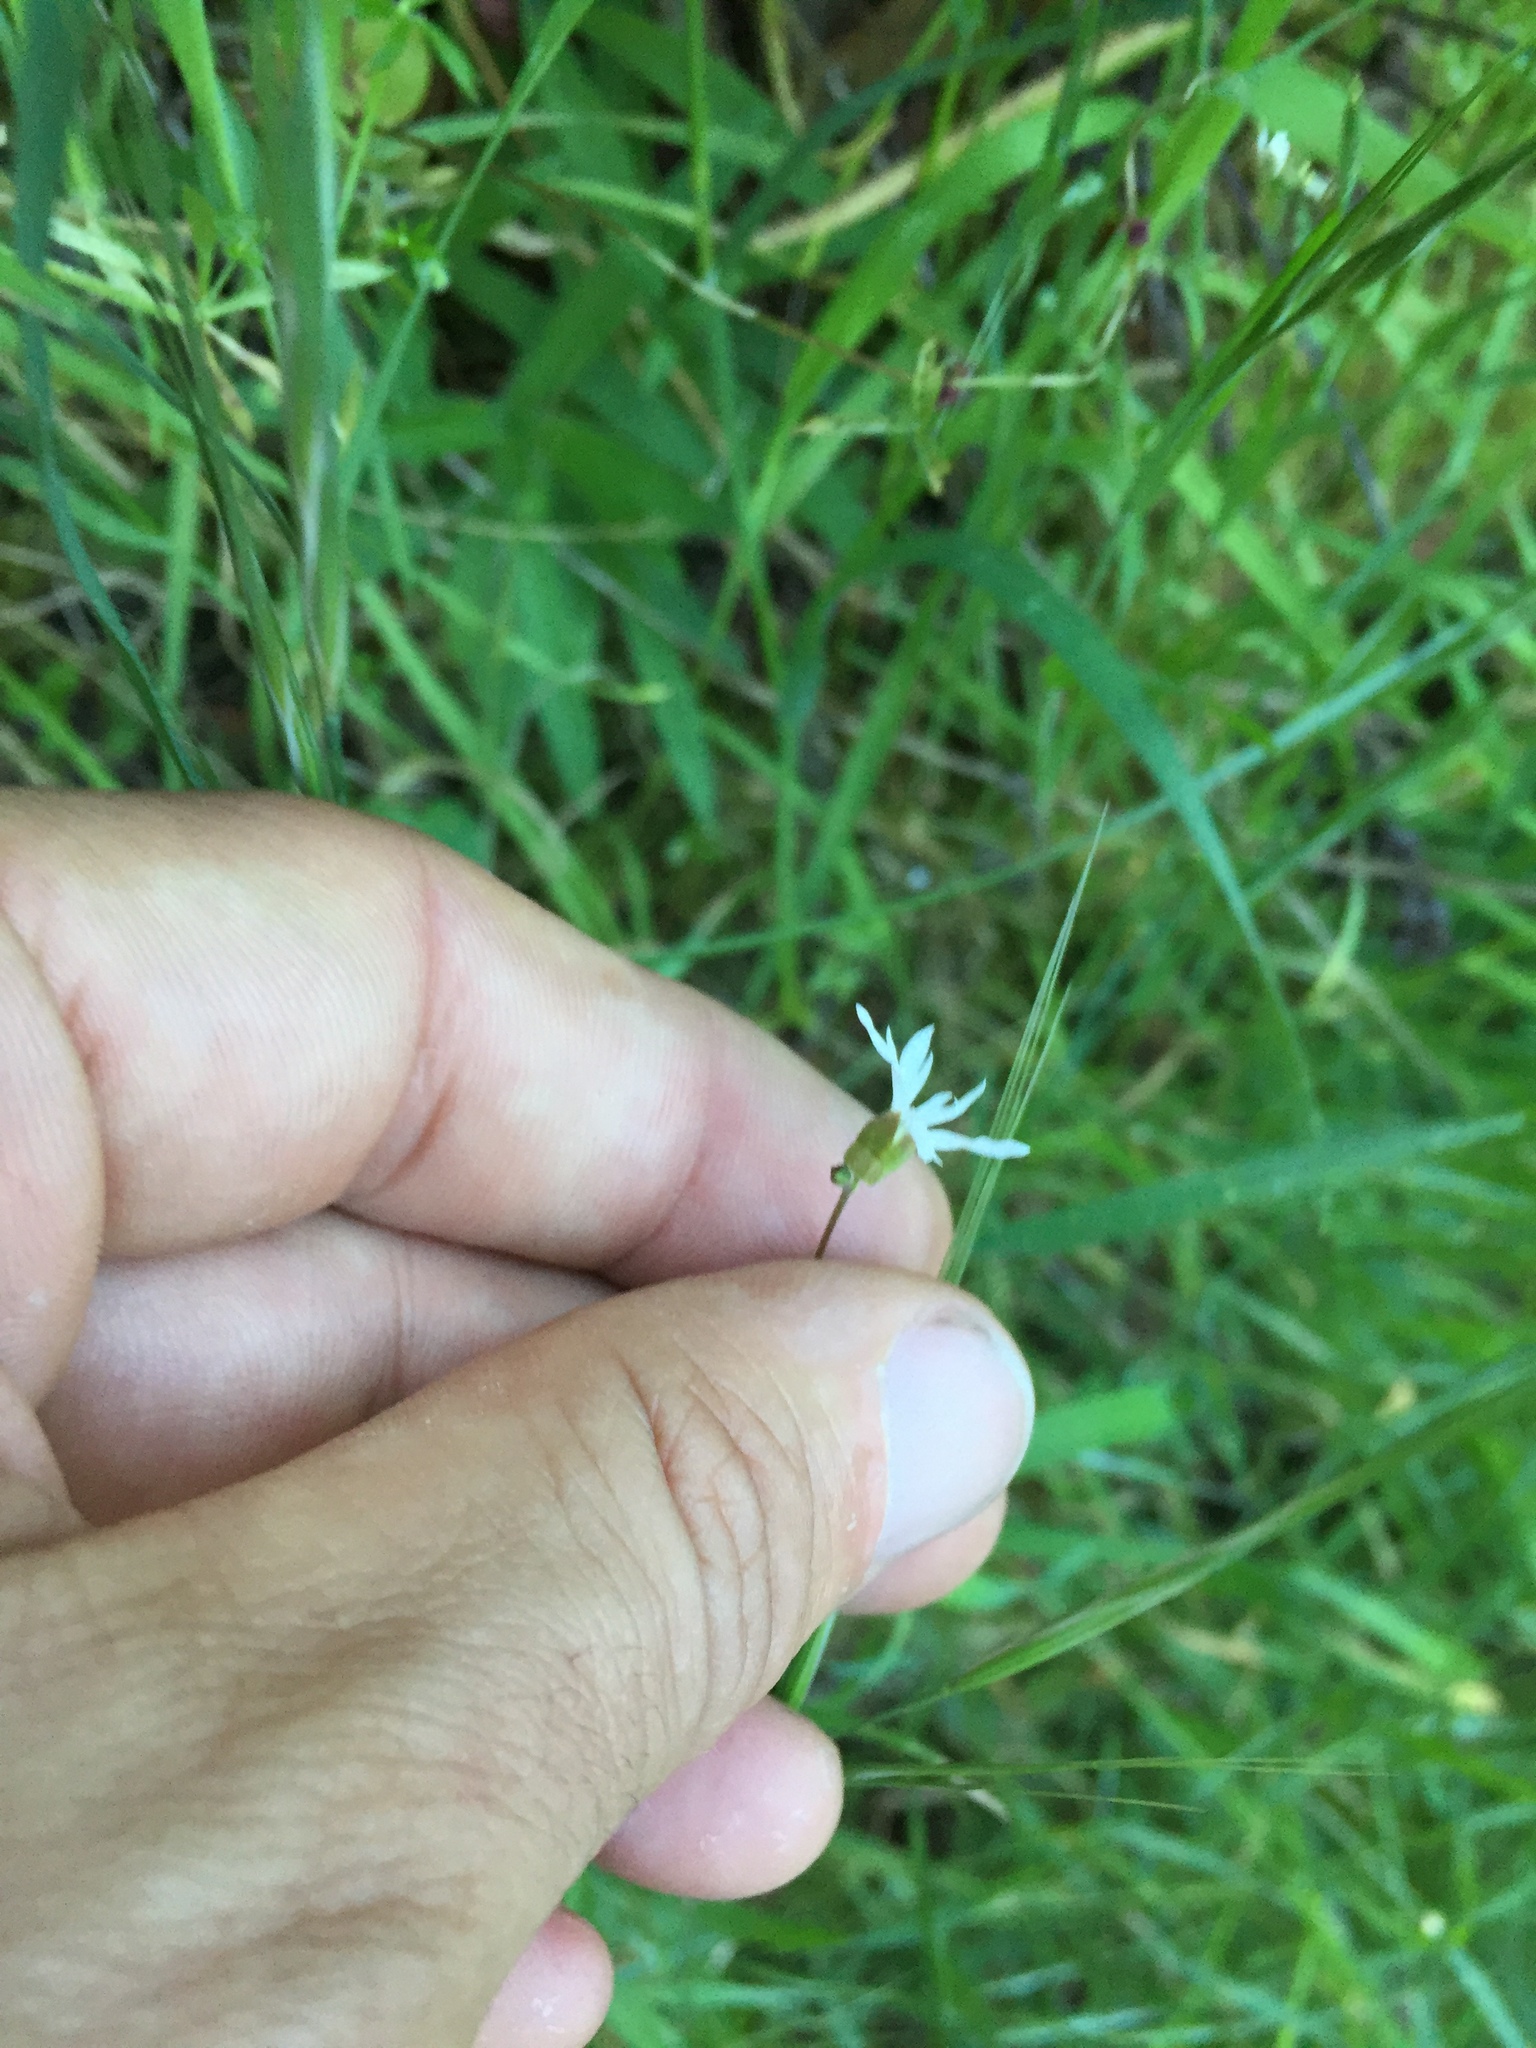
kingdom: Plantae
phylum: Tracheophyta
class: Magnoliopsida
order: Saxifragales
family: Saxifragaceae
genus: Lithophragma
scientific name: Lithophragma heterophyllum
